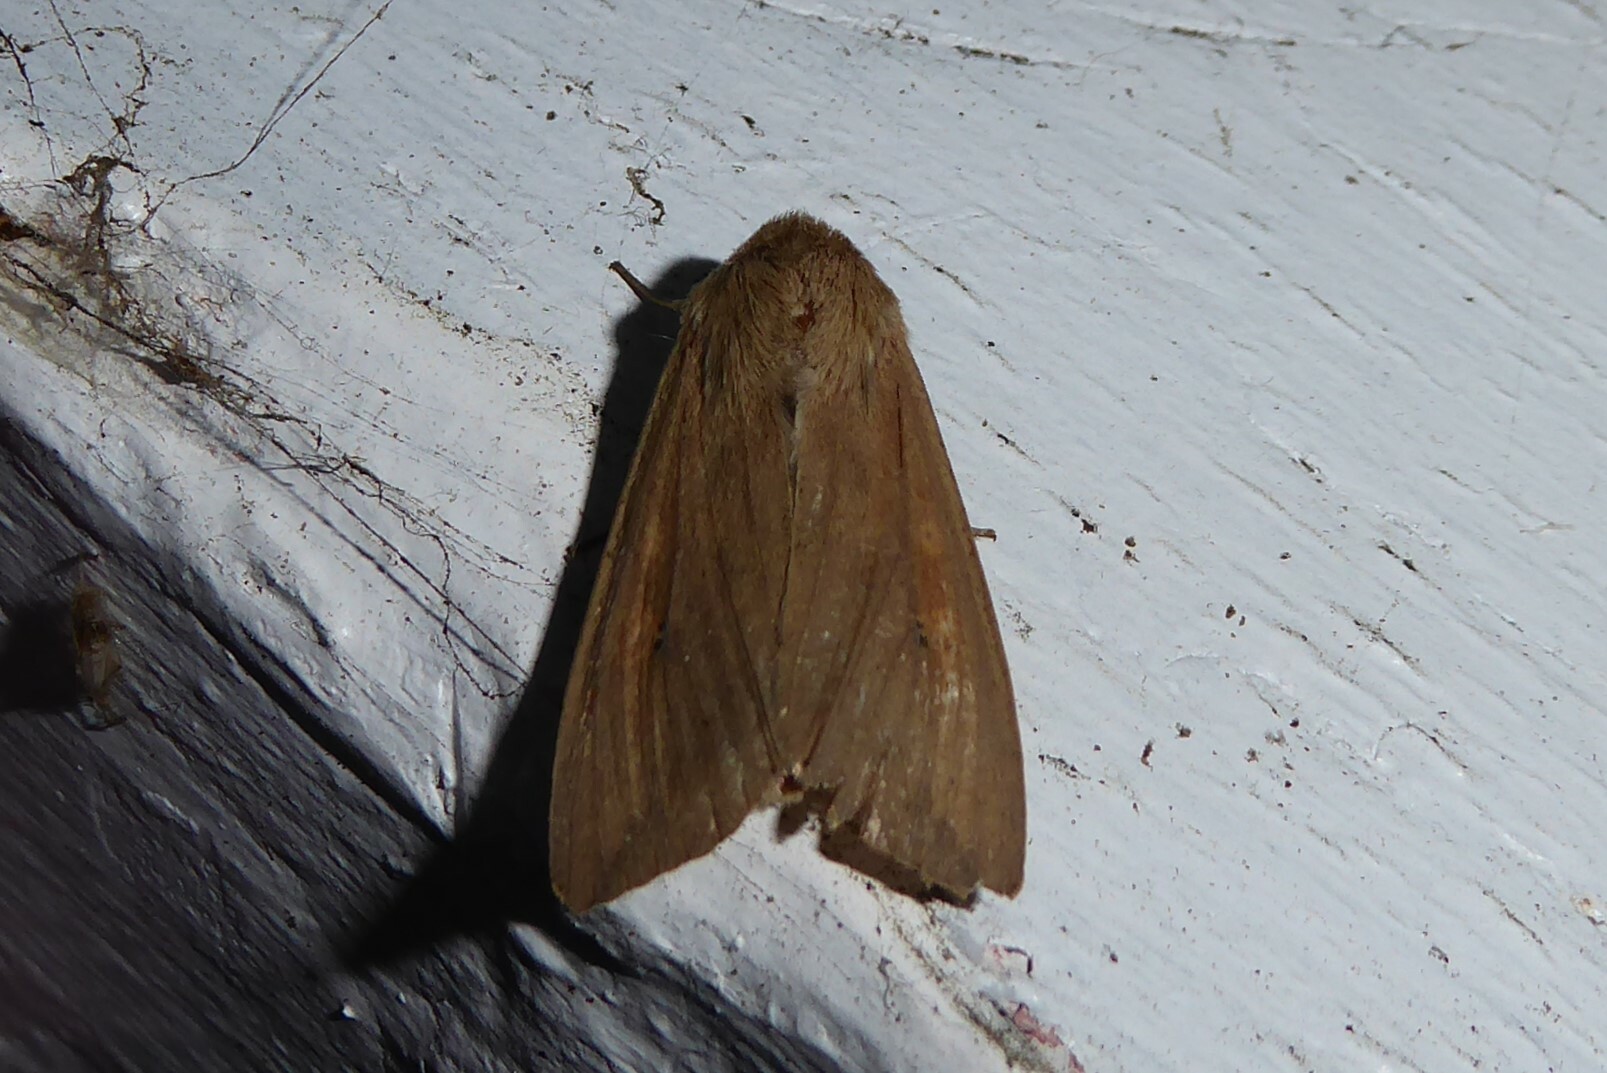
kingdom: Animalia
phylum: Arthropoda
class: Insecta
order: Lepidoptera
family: Noctuidae
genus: Mythimna
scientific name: Mythimna separata
